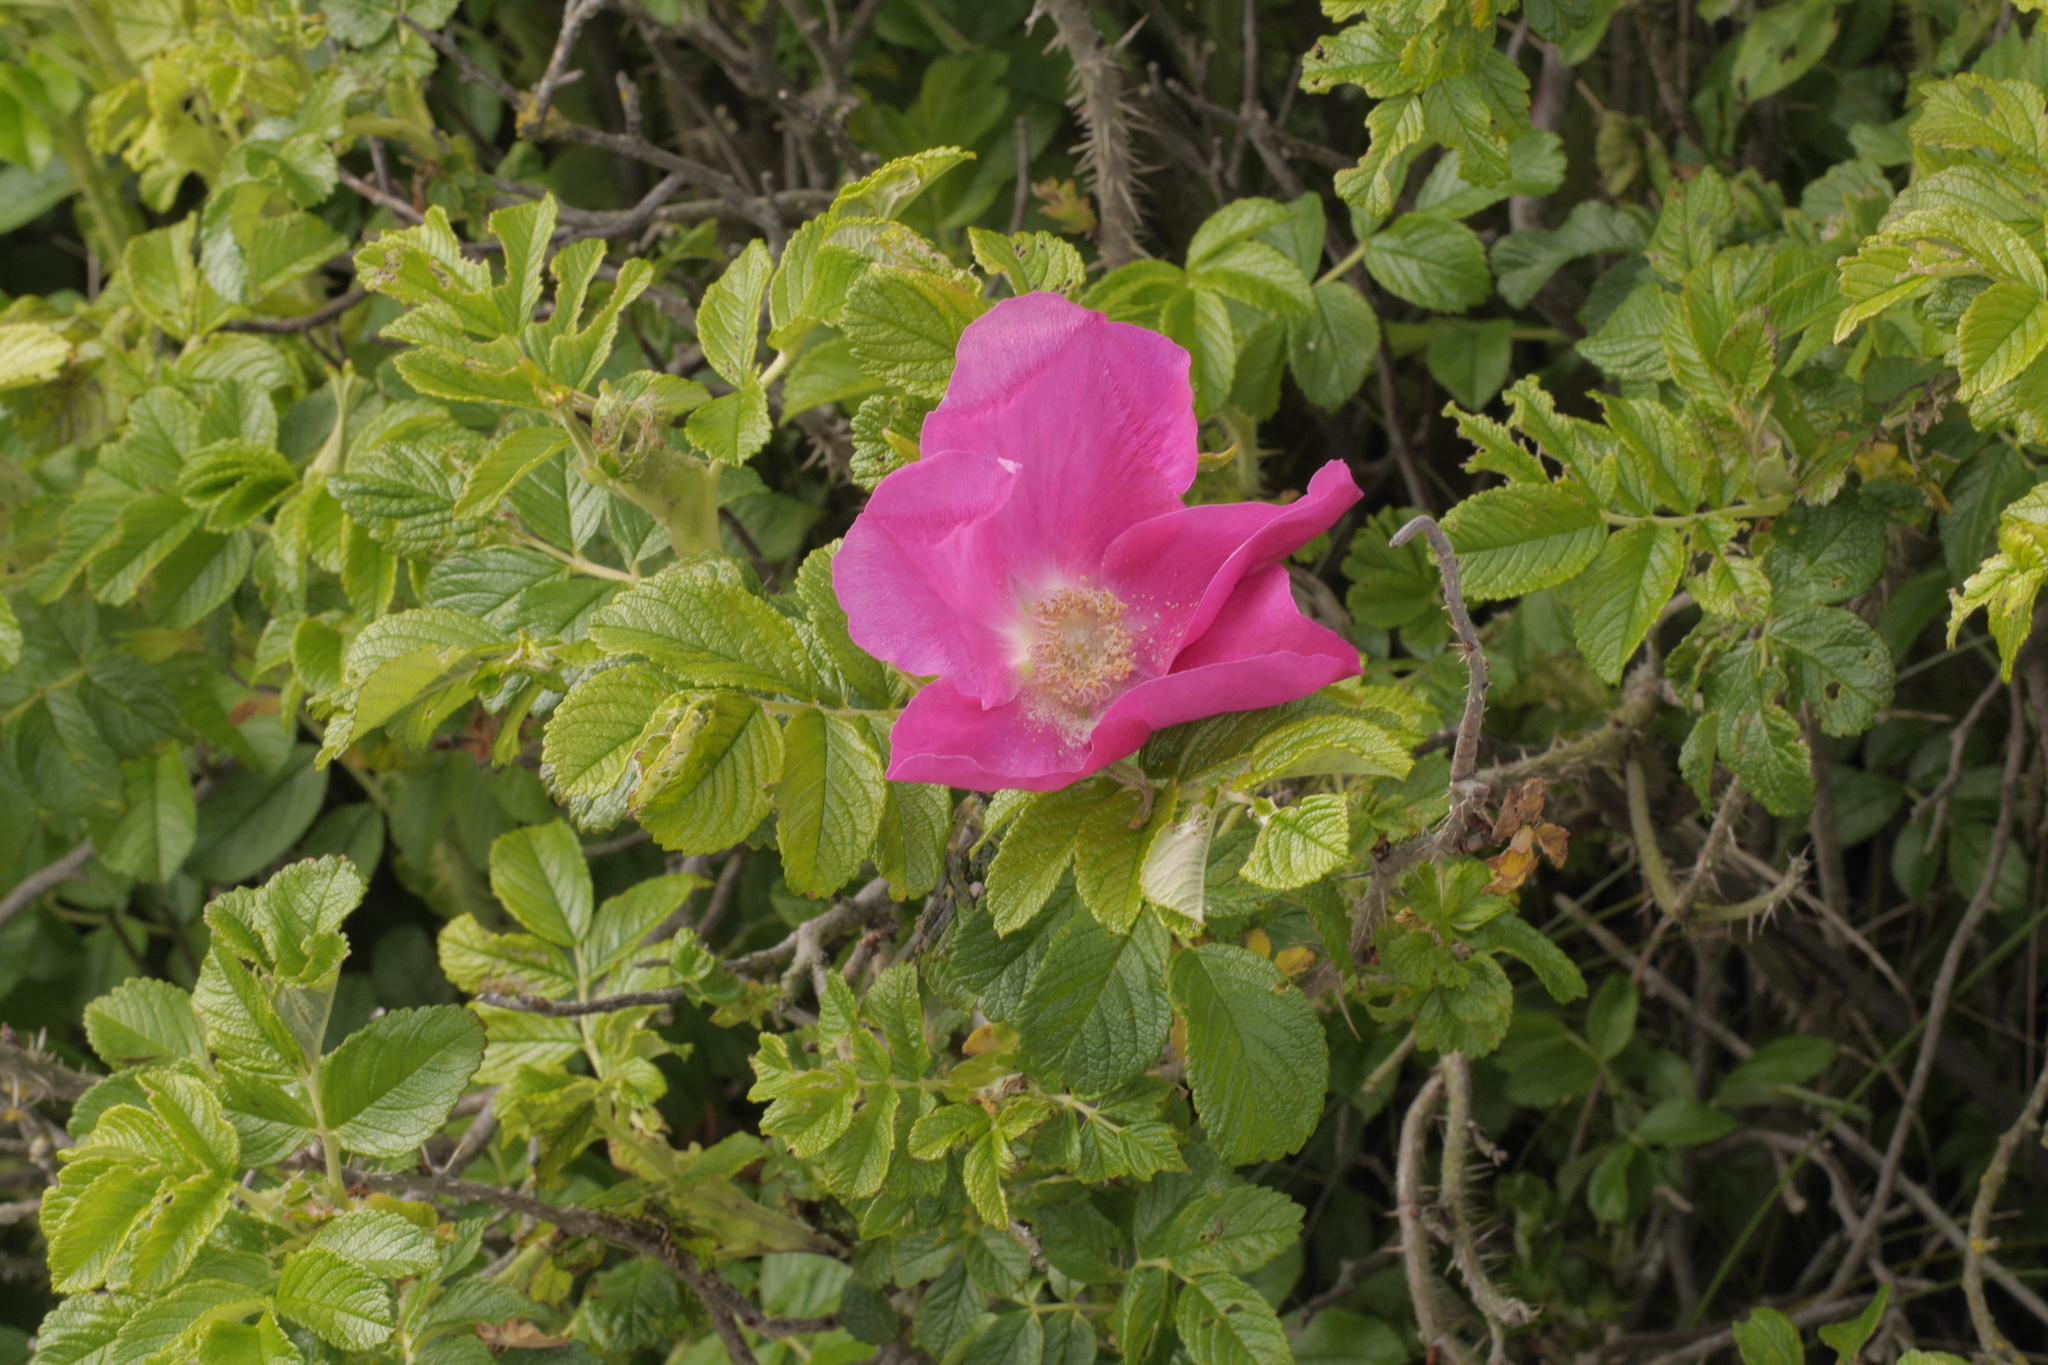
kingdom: Plantae
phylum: Tracheophyta
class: Magnoliopsida
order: Rosales
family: Rosaceae
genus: Rosa
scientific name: Rosa rugosa
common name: Japanese rose
